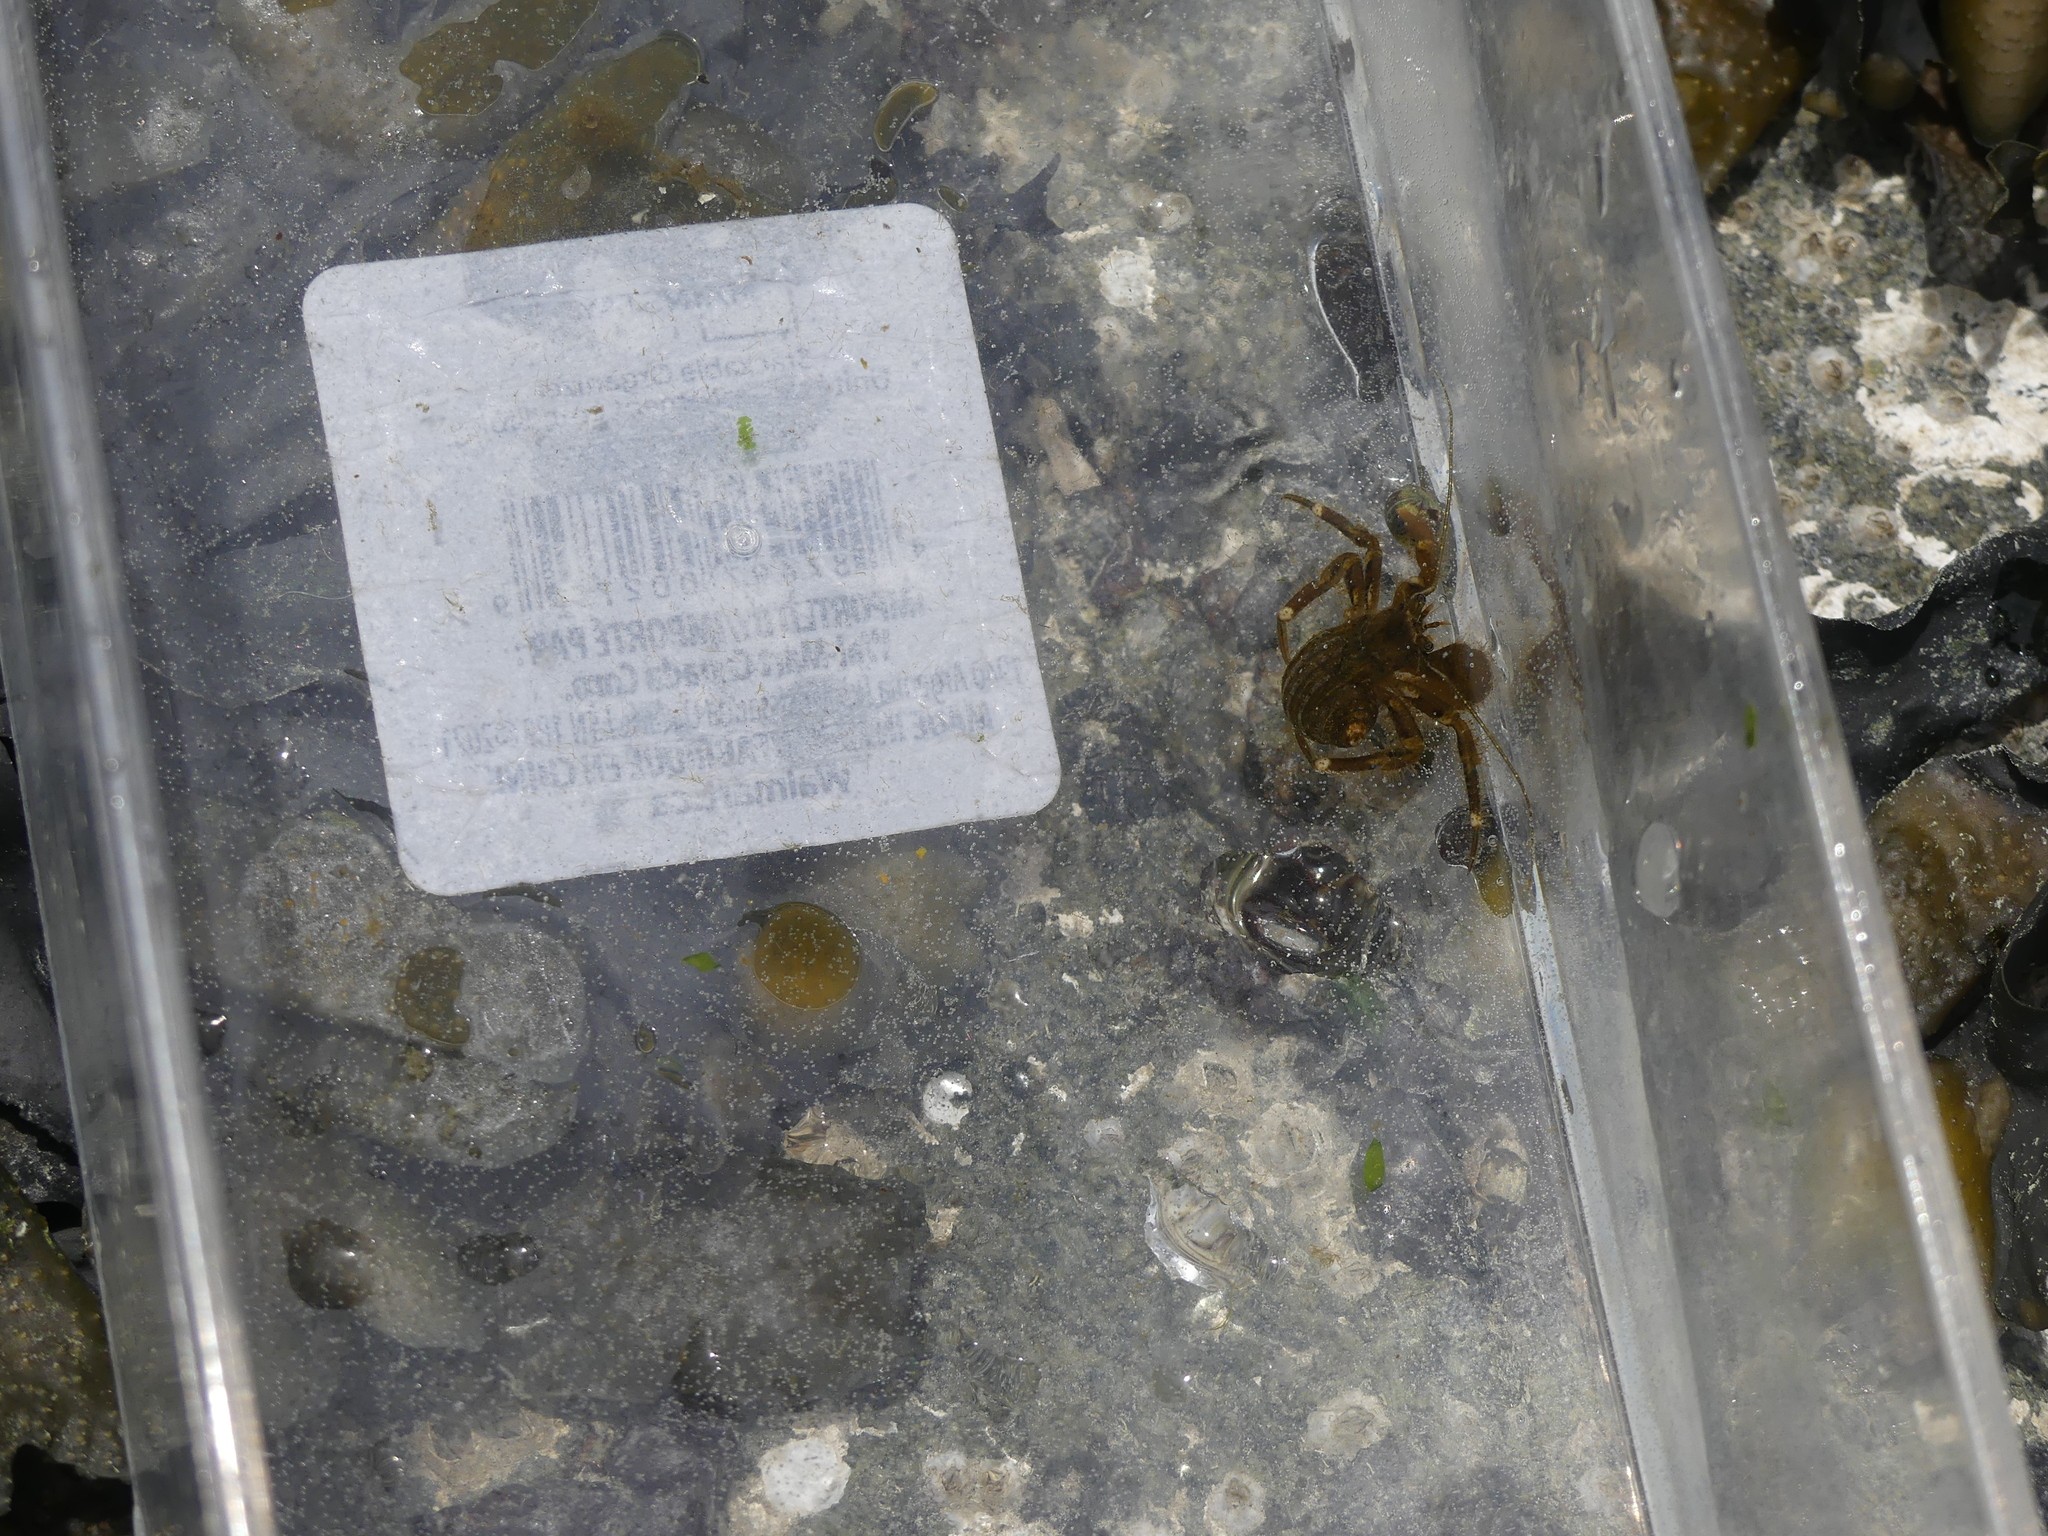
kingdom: Animalia
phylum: Arthropoda
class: Malacostraca
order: Decapoda
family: Paguridae
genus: Pagurus
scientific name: Pagurus hirsutiusculus
